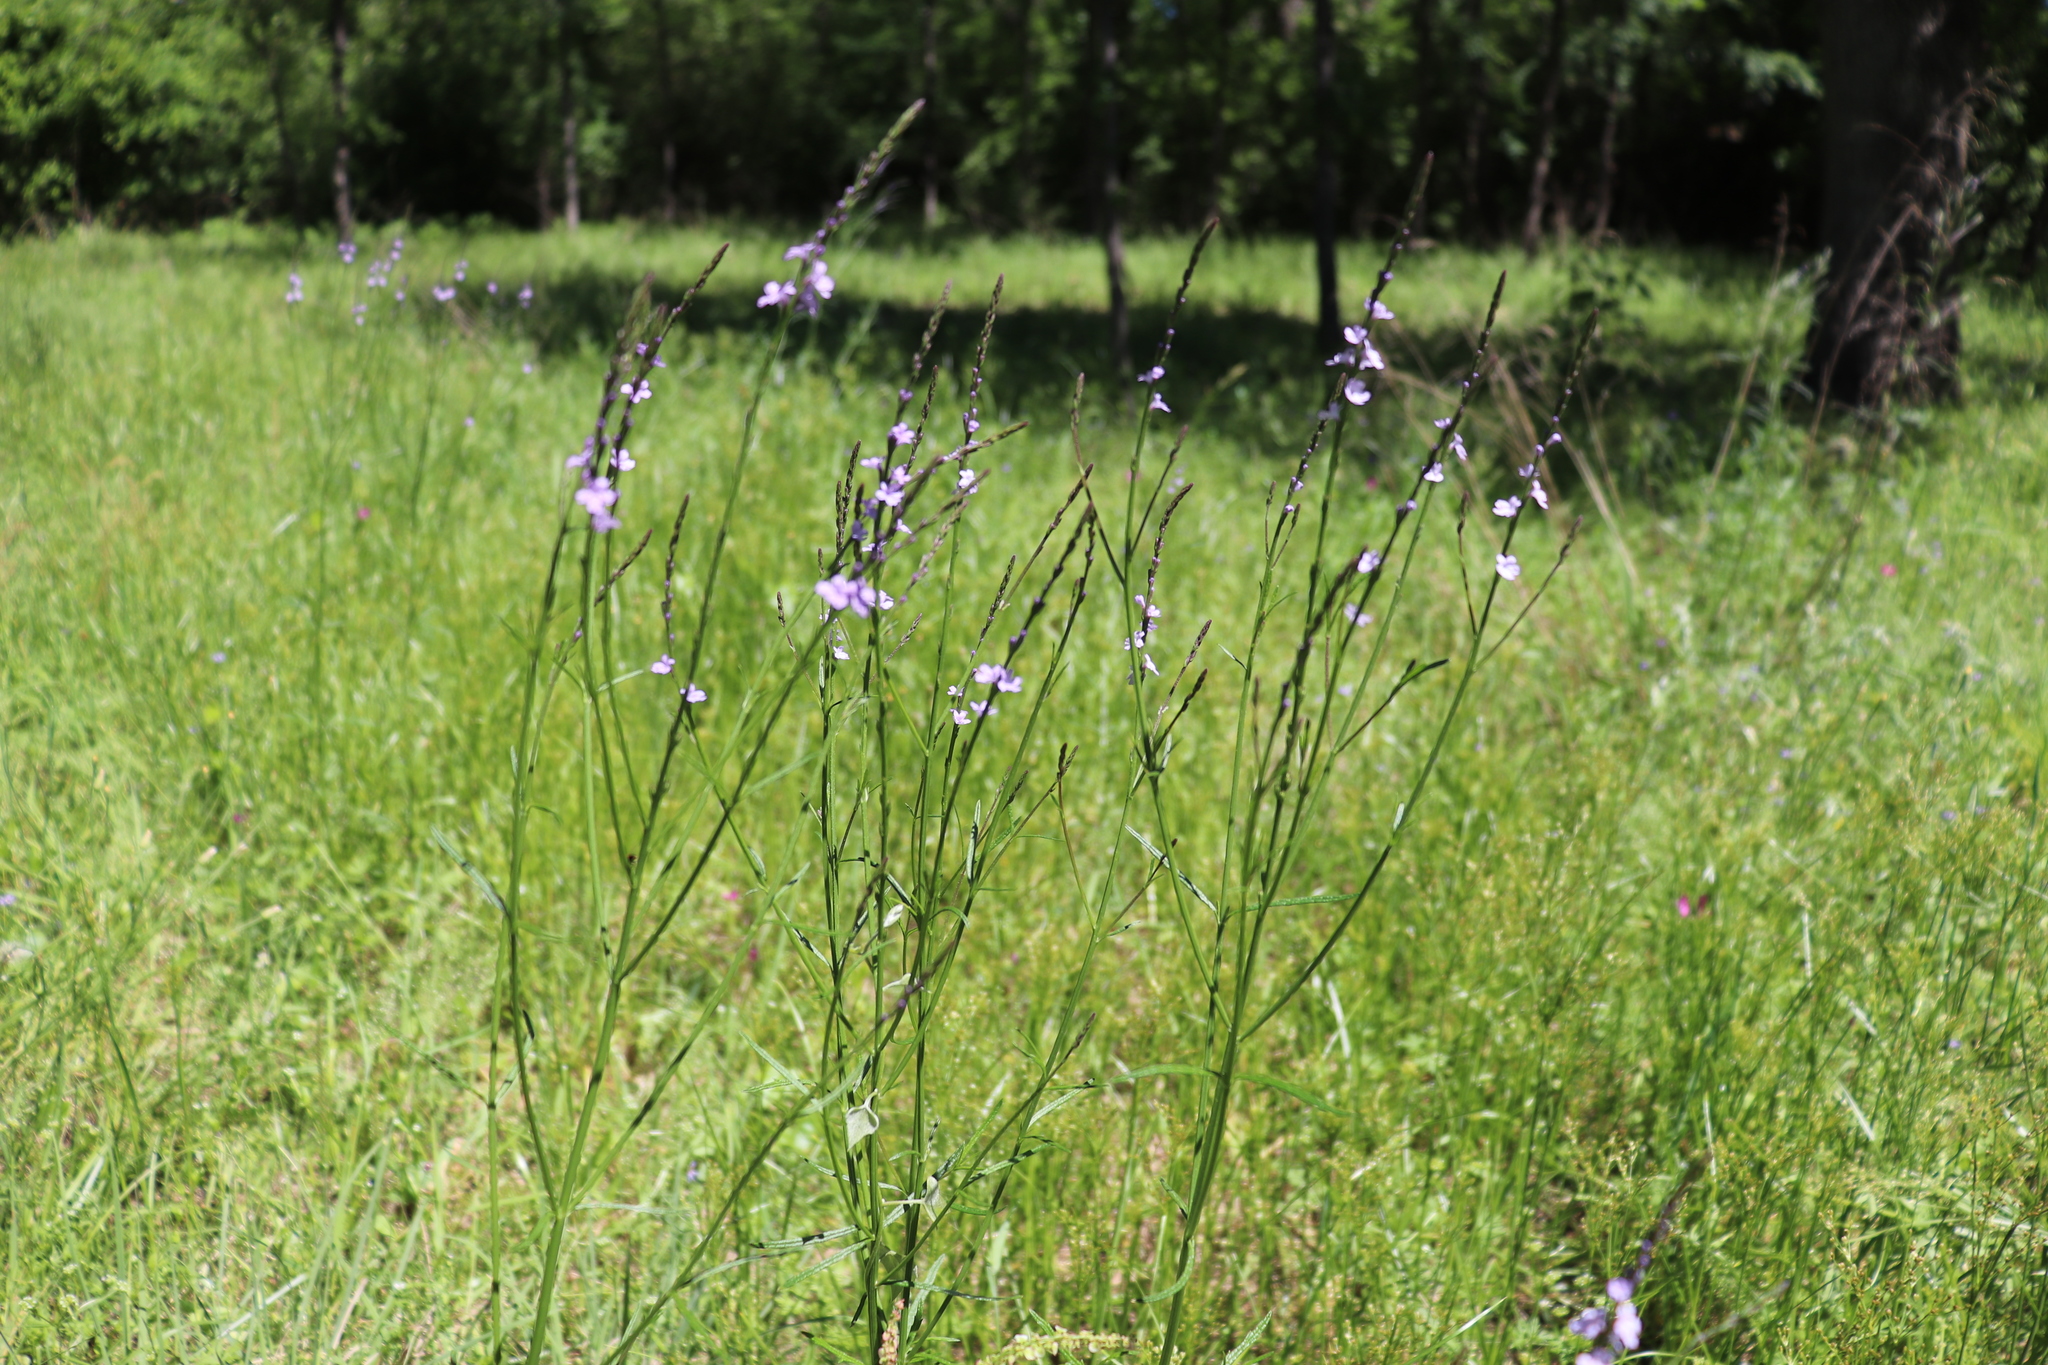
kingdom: Plantae
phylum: Tracheophyta
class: Magnoliopsida
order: Lamiales
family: Verbenaceae
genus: Verbena
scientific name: Verbena halei
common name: Texas vervain
